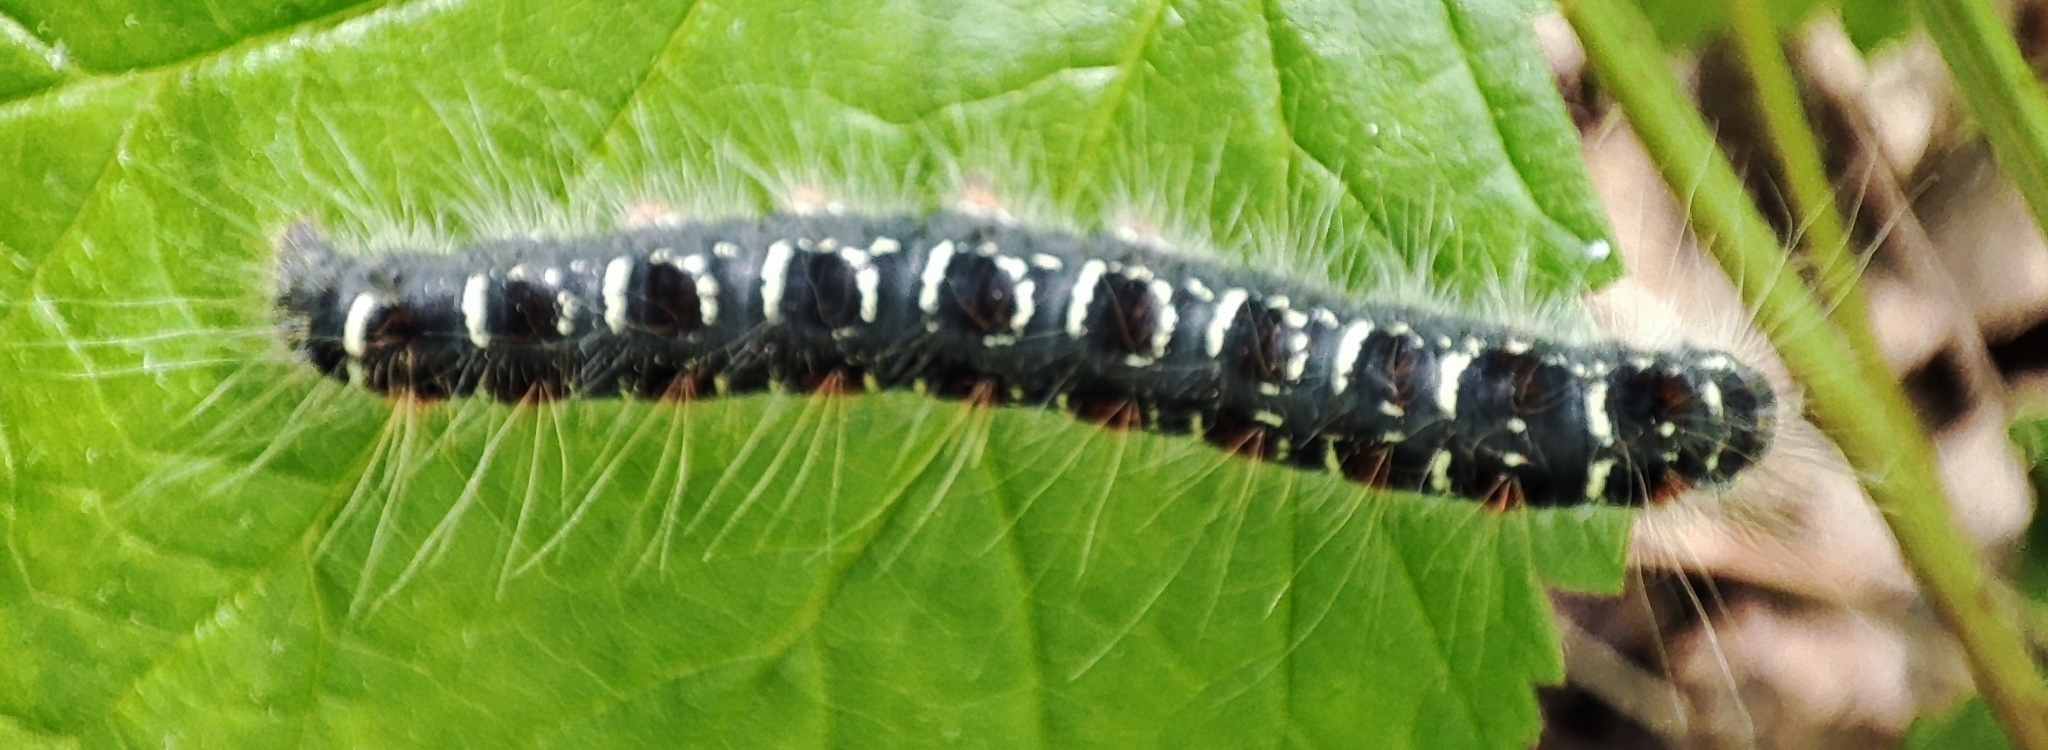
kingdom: Animalia
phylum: Arthropoda
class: Insecta
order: Lepidoptera
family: Lasiocampidae
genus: Eriogaster
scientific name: Eriogaster lanestris
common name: Small eggar
